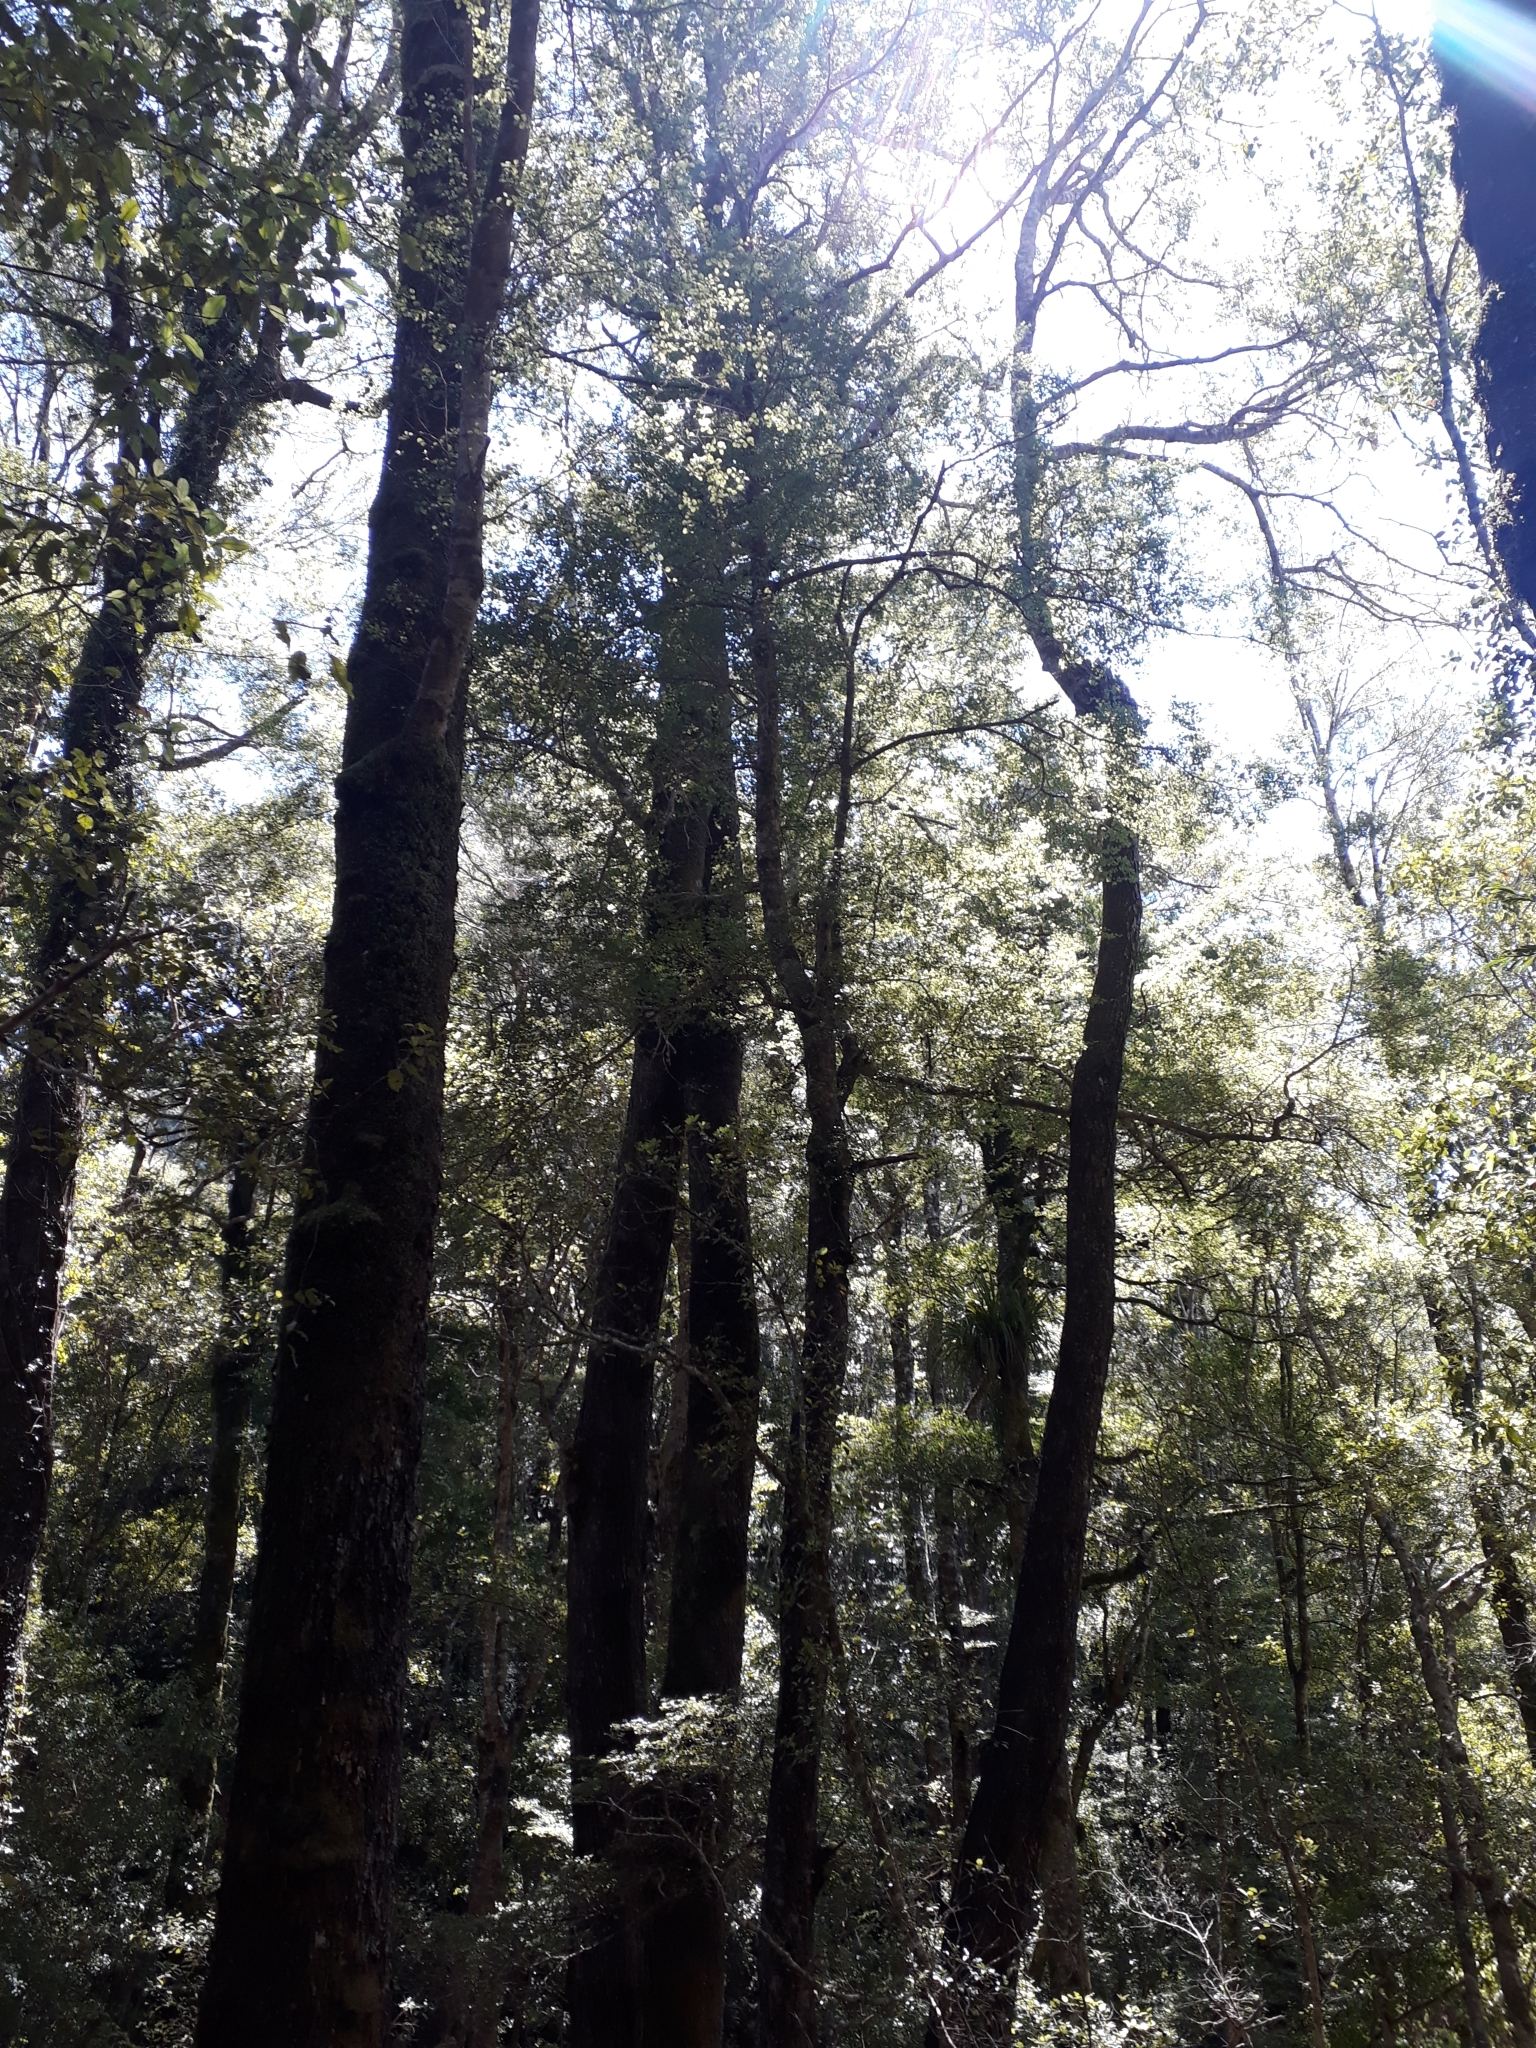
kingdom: Plantae
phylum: Tracheophyta
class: Magnoliopsida
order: Fagales
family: Nothofagaceae
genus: Nothofagus
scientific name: Nothofagus truncata
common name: Hard beech
